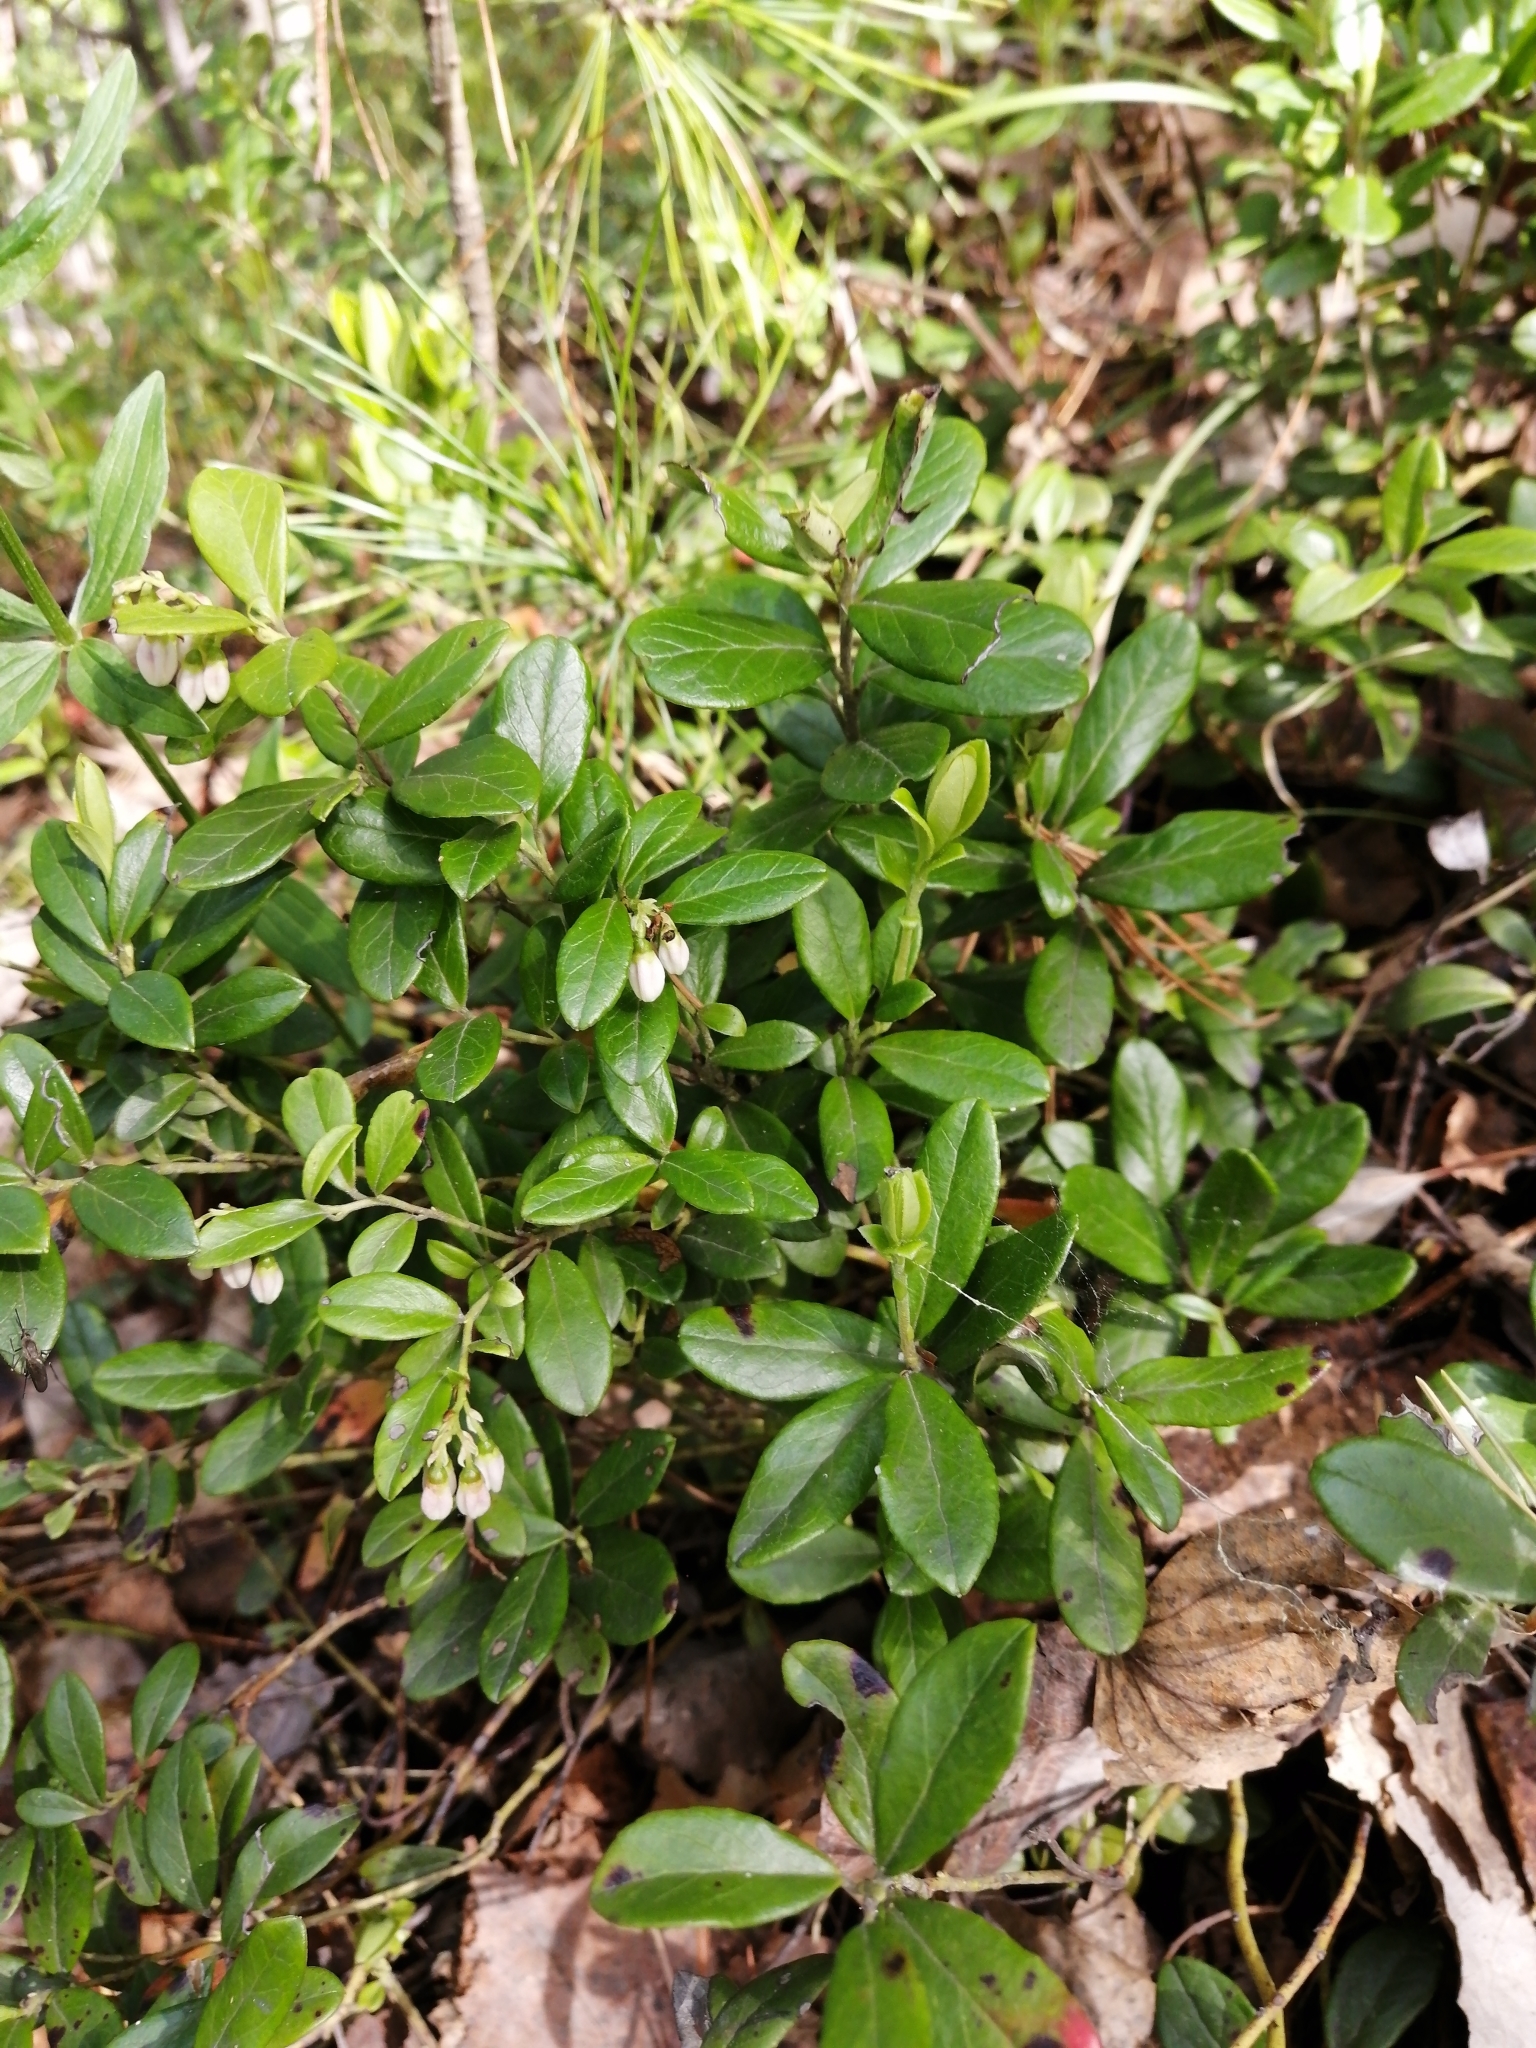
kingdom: Plantae
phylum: Tracheophyta
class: Magnoliopsida
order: Ericales
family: Ericaceae
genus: Vaccinium
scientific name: Vaccinium vitis-idaea
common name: Cowberry
